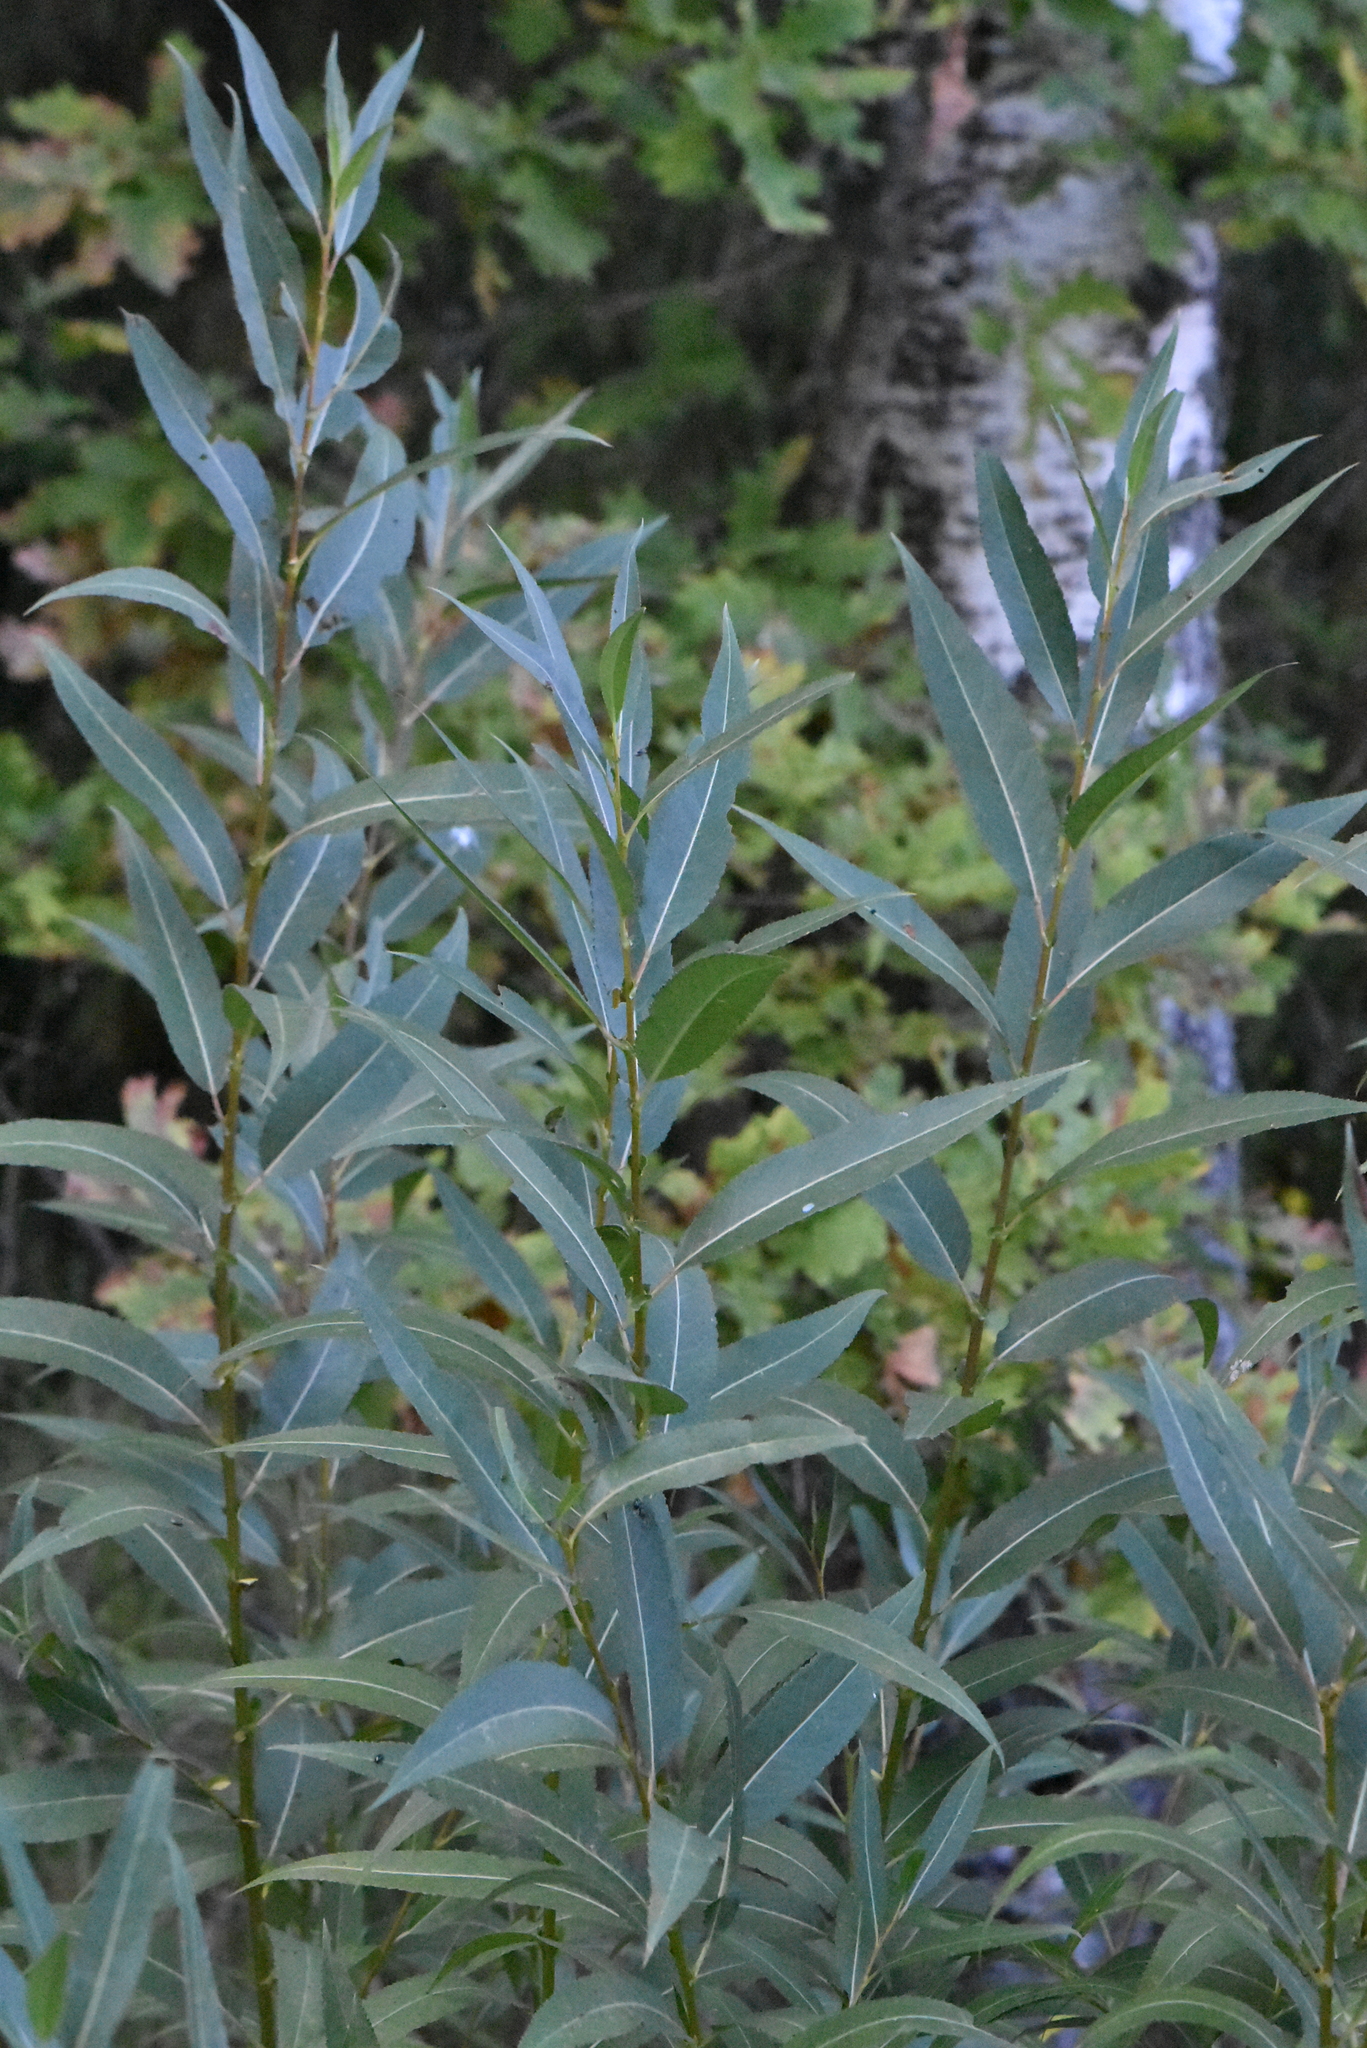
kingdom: Plantae
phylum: Tracheophyta
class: Magnoliopsida
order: Malpighiales
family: Salicaceae
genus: Salix
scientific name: Salix triandra
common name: Almond willow
